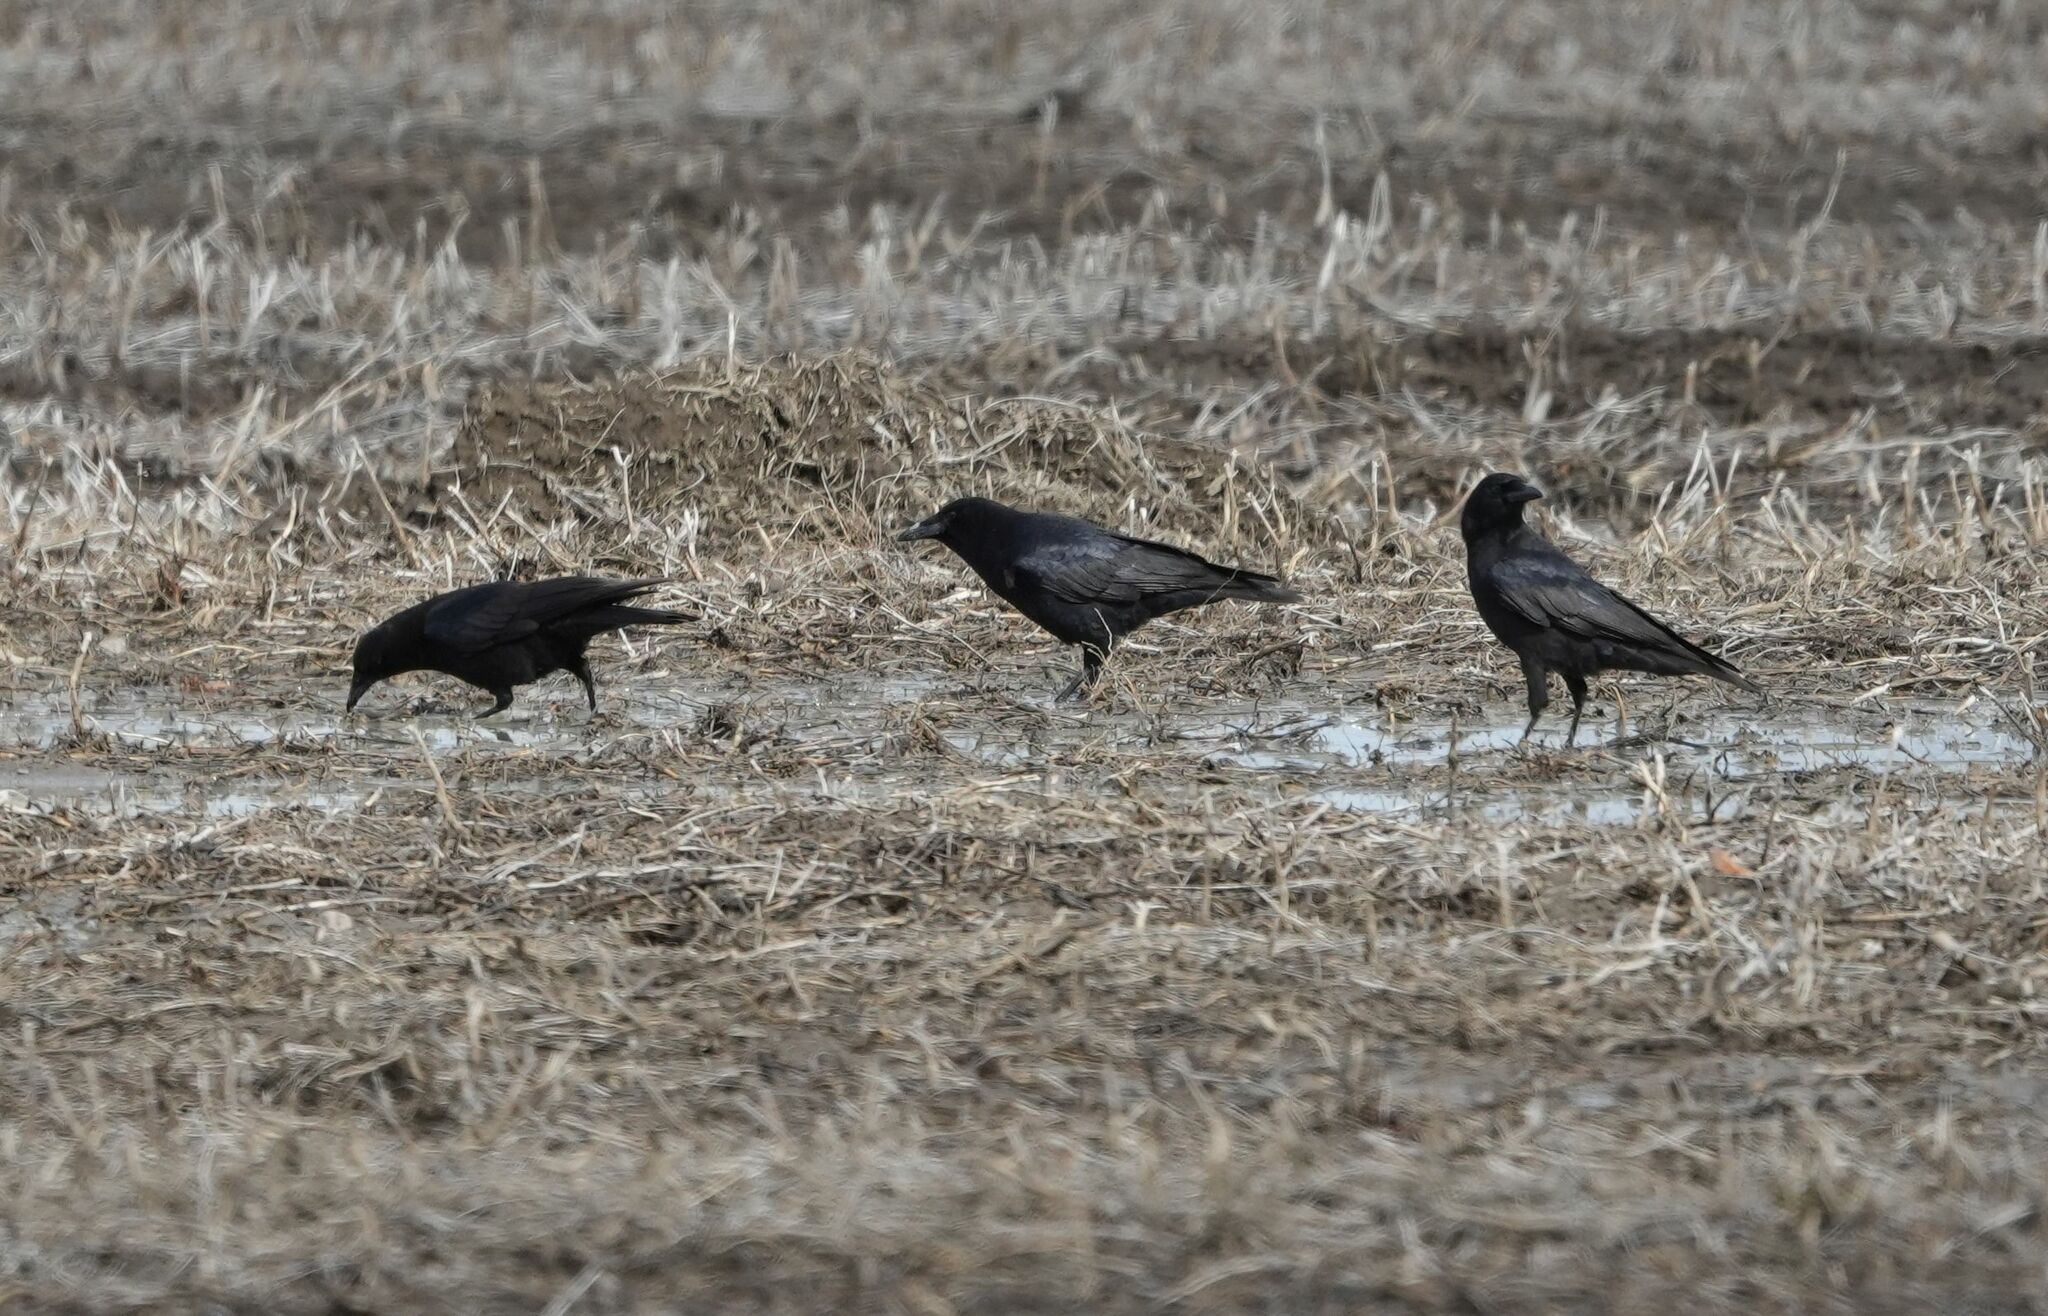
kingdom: Animalia
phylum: Chordata
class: Aves
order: Passeriformes
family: Corvidae
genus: Corvus
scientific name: Corvus brachyrhynchos
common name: American crow
